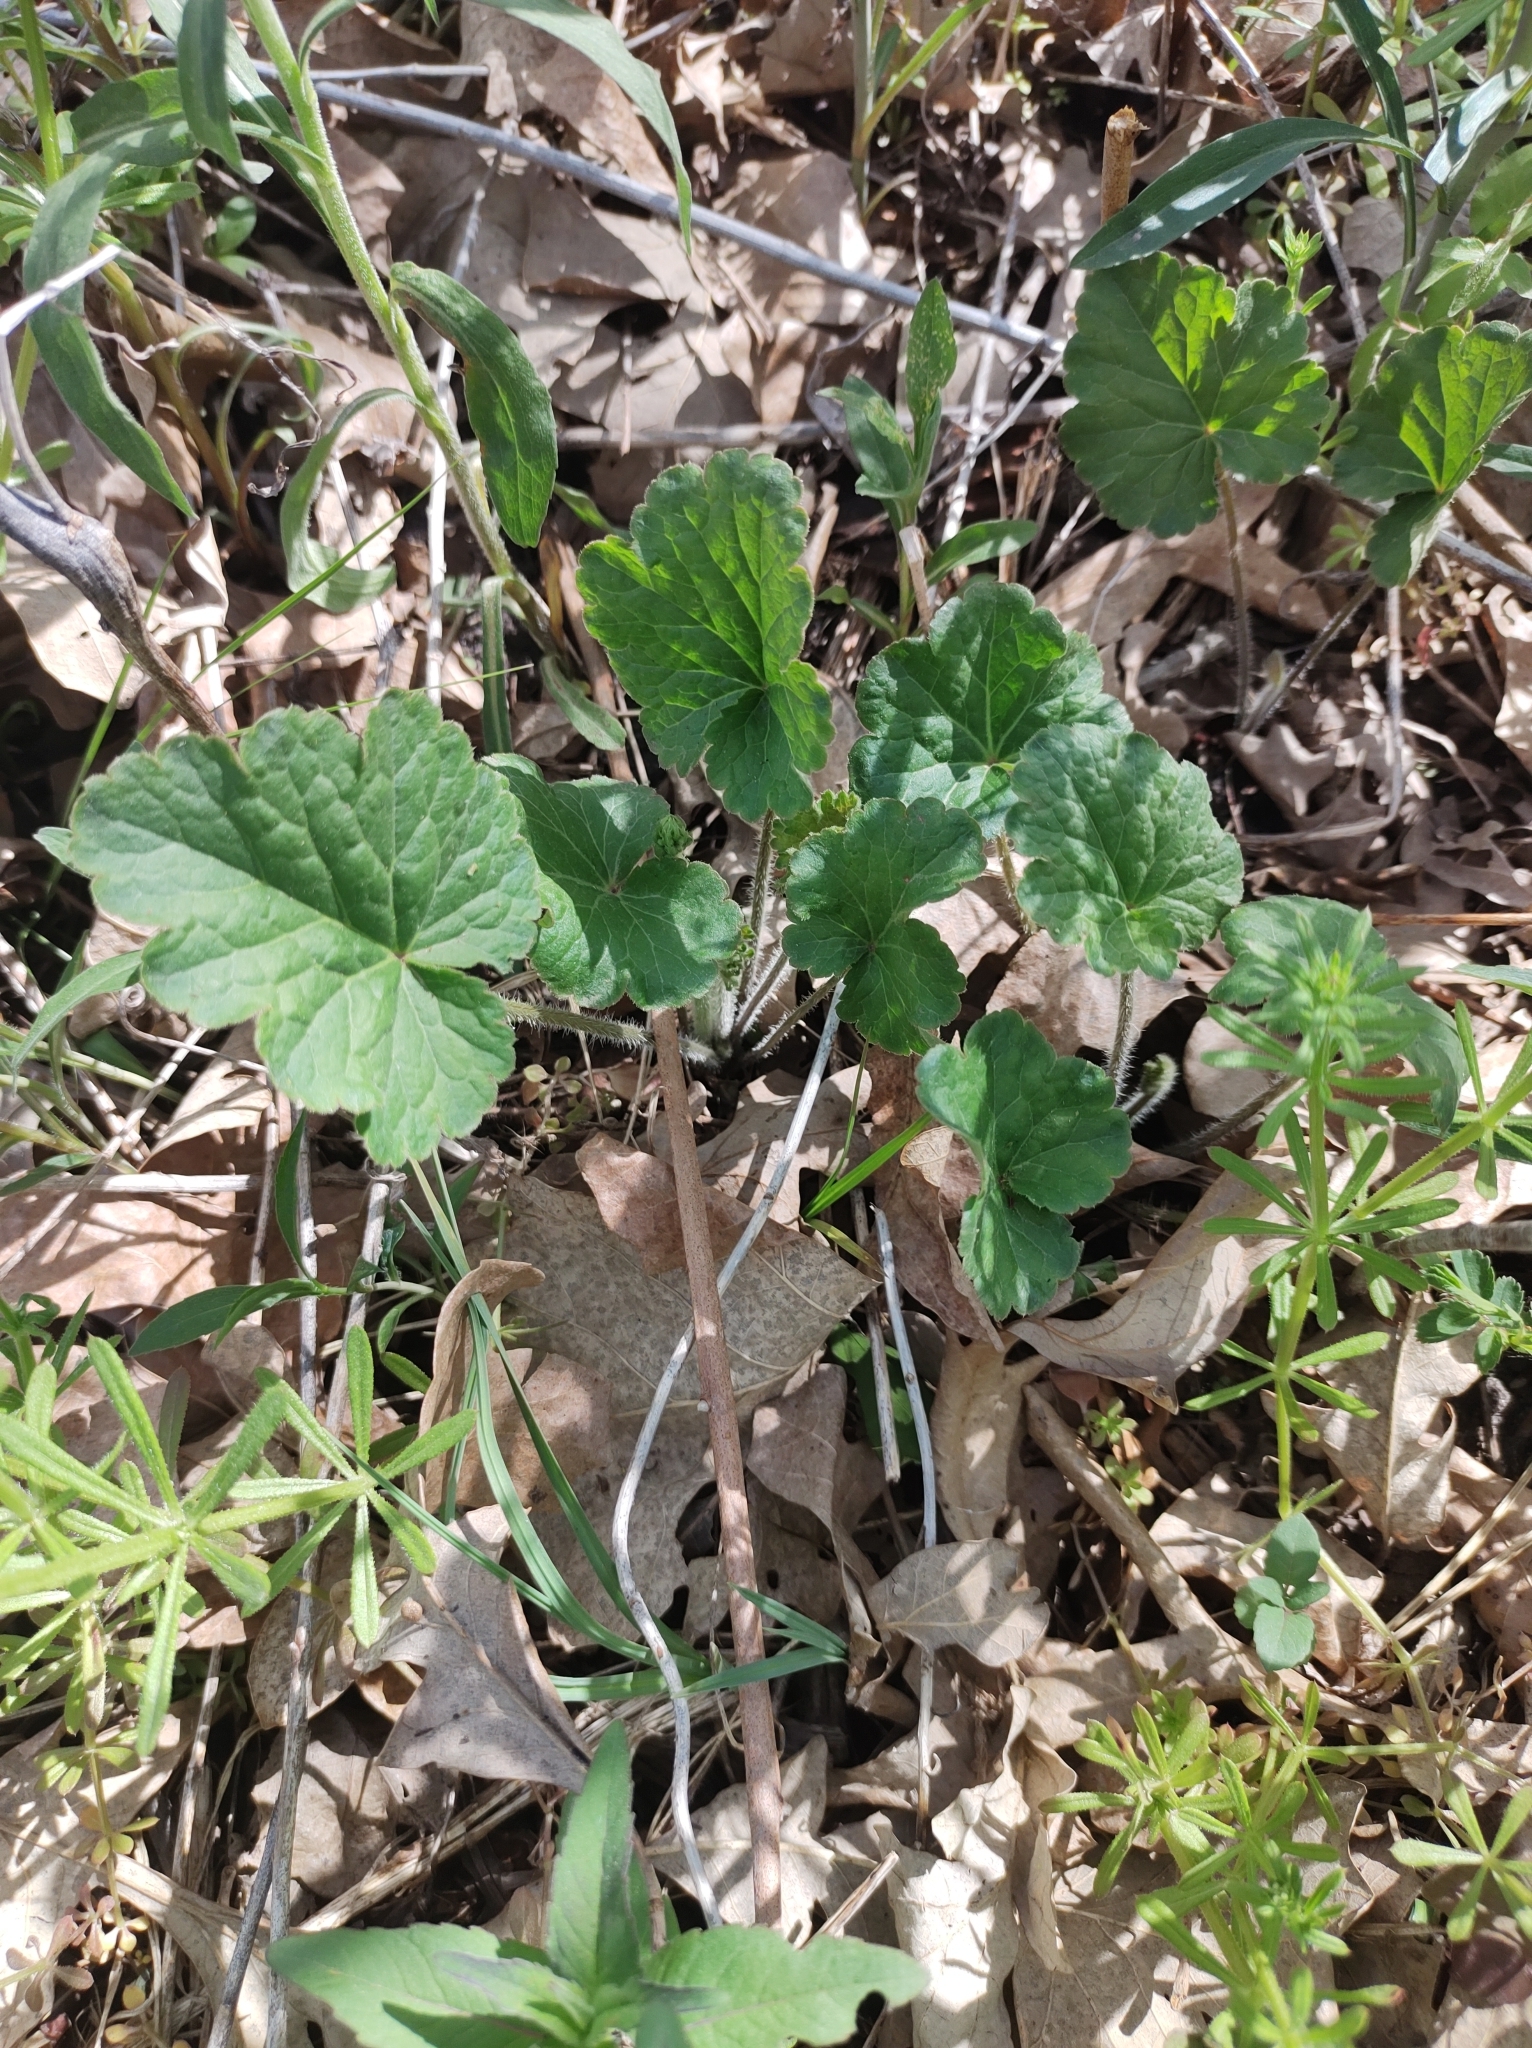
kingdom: Plantae
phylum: Tracheophyta
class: Magnoliopsida
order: Saxifragales
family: Saxifragaceae
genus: Heuchera
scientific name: Heuchera richardsonii
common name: Richardson's alumroot
